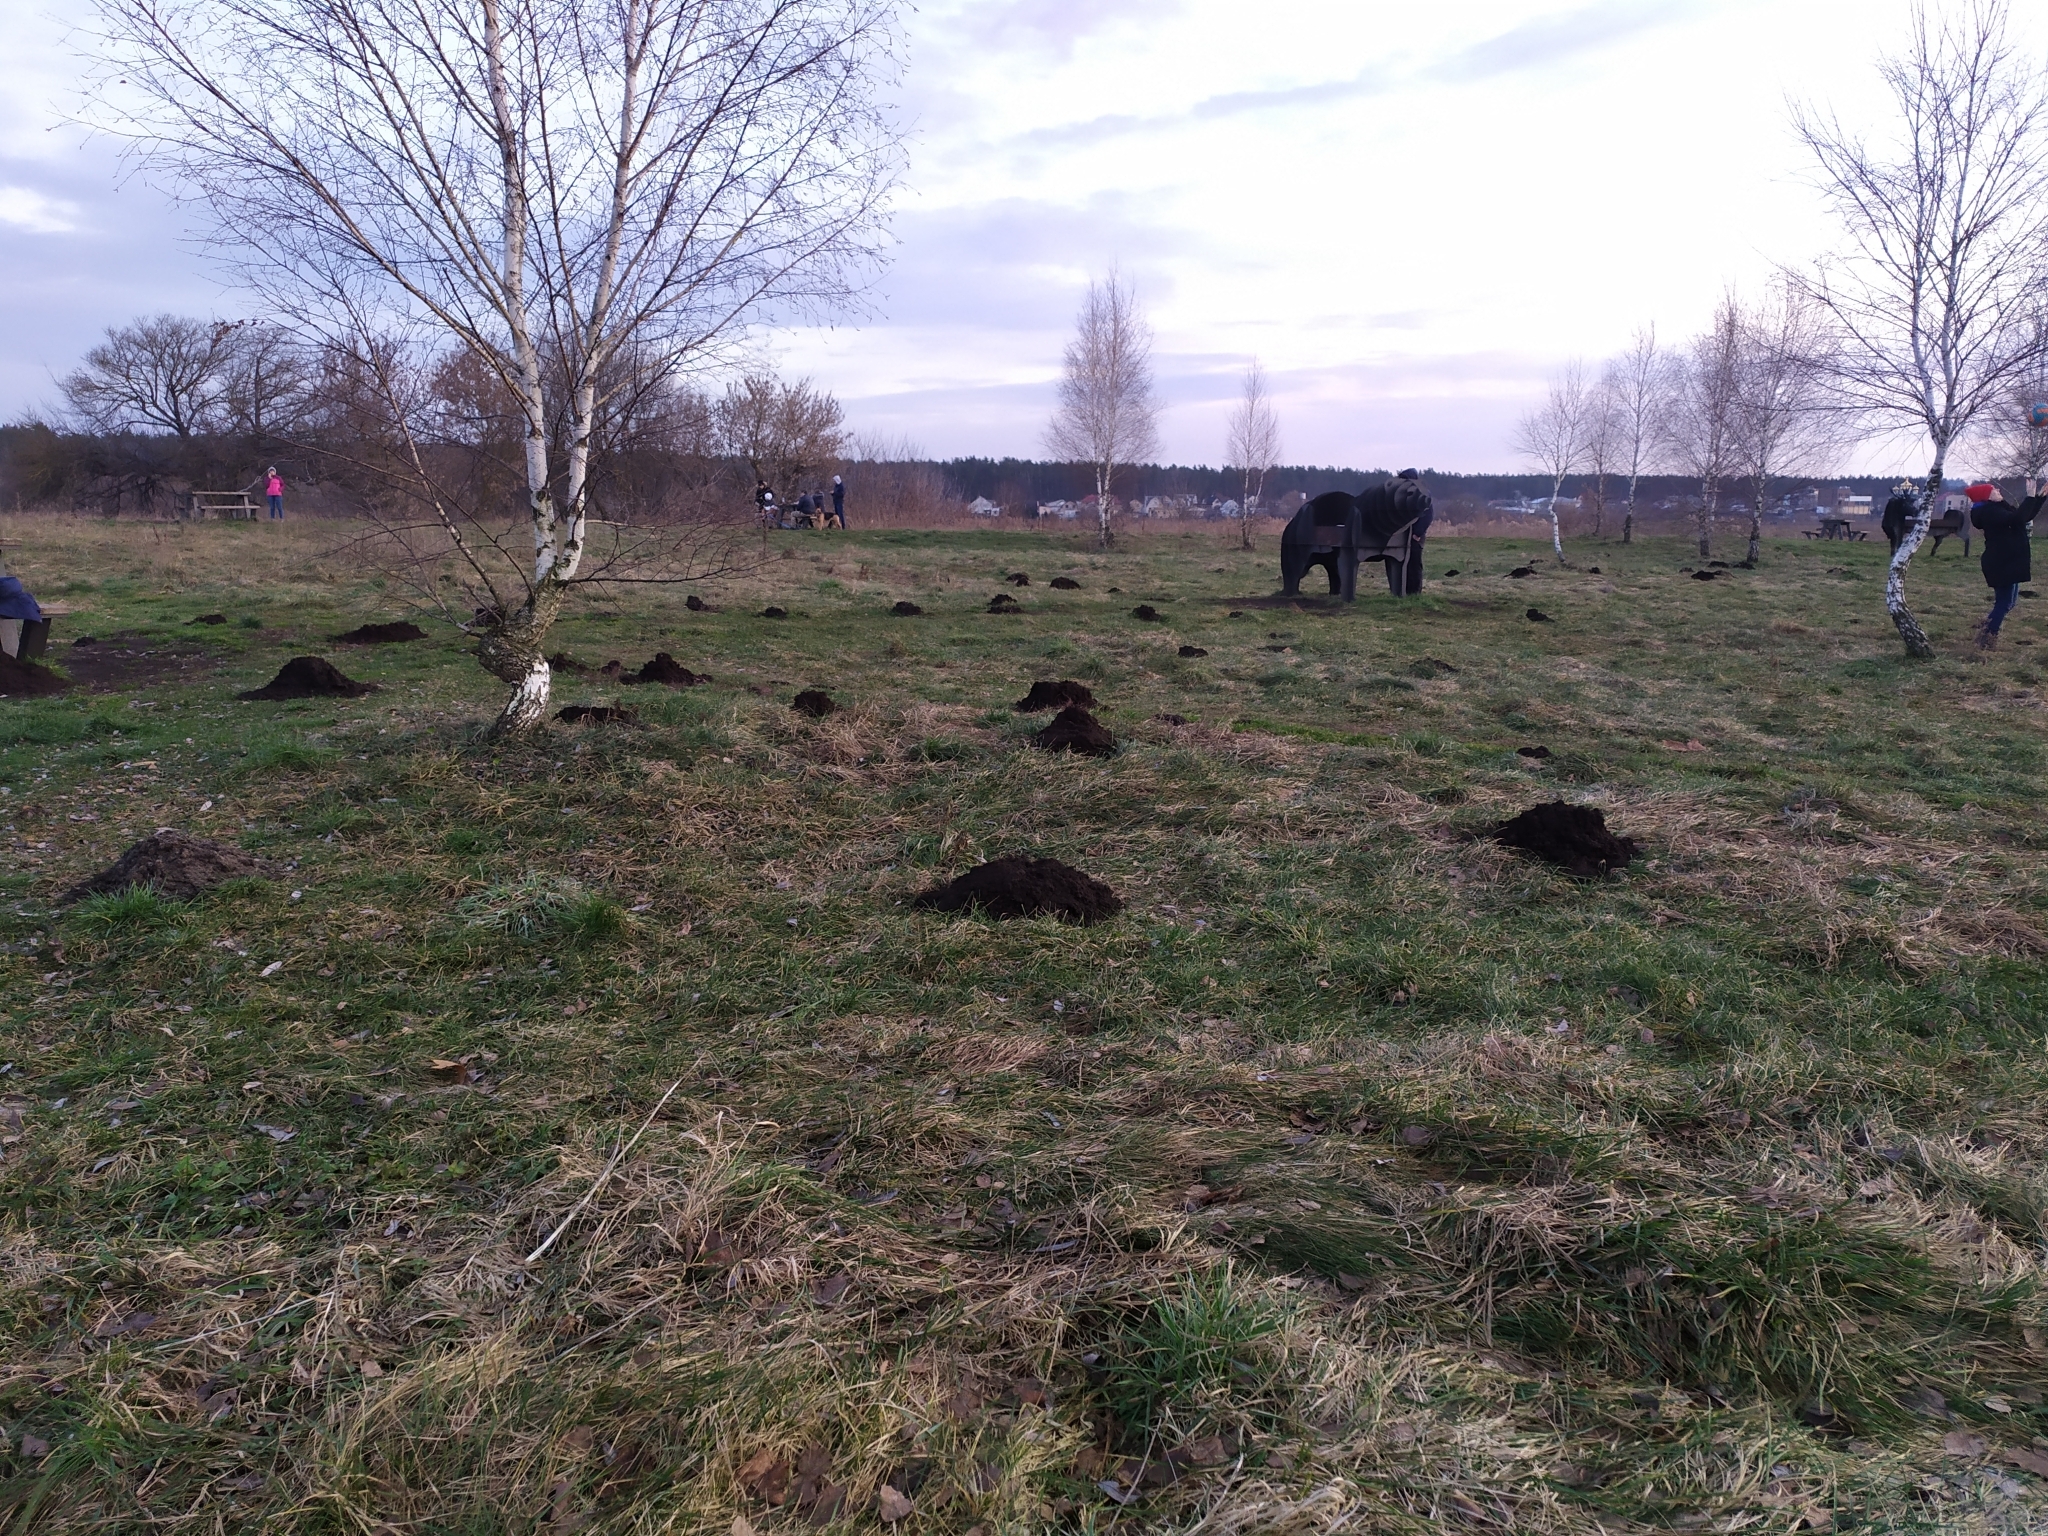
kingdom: Animalia
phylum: Chordata
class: Mammalia
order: Soricomorpha
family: Talpidae
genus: Talpa
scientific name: Talpa europaea
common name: European mole
